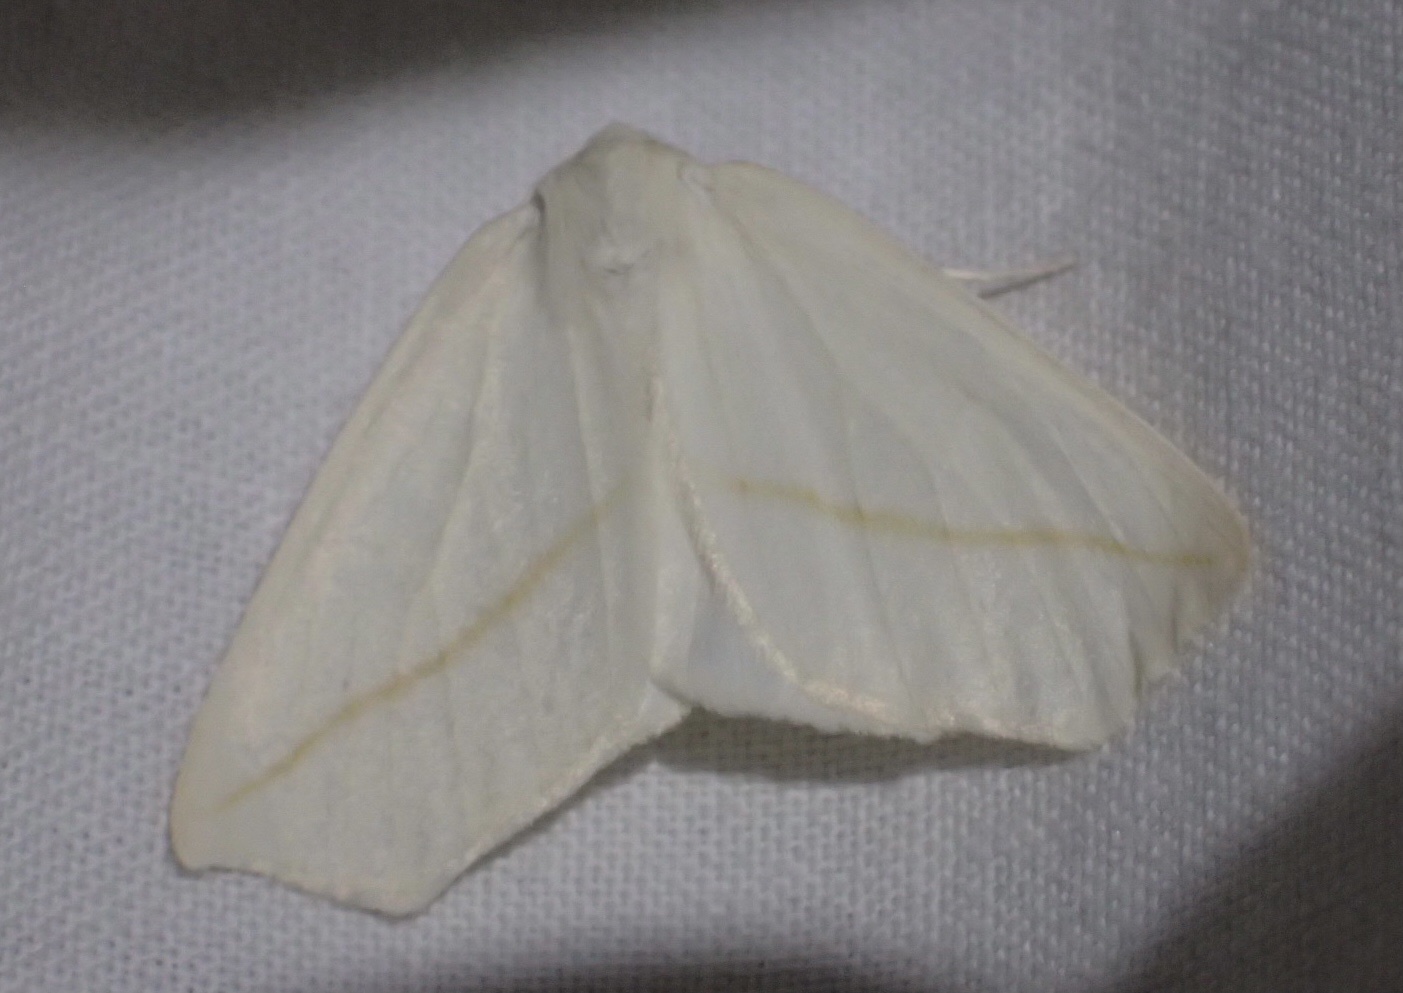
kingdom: Animalia
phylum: Arthropoda
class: Insecta
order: Lepidoptera
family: Geometridae
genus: Tetracis
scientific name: Tetracis cachexiata
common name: White slant-line
